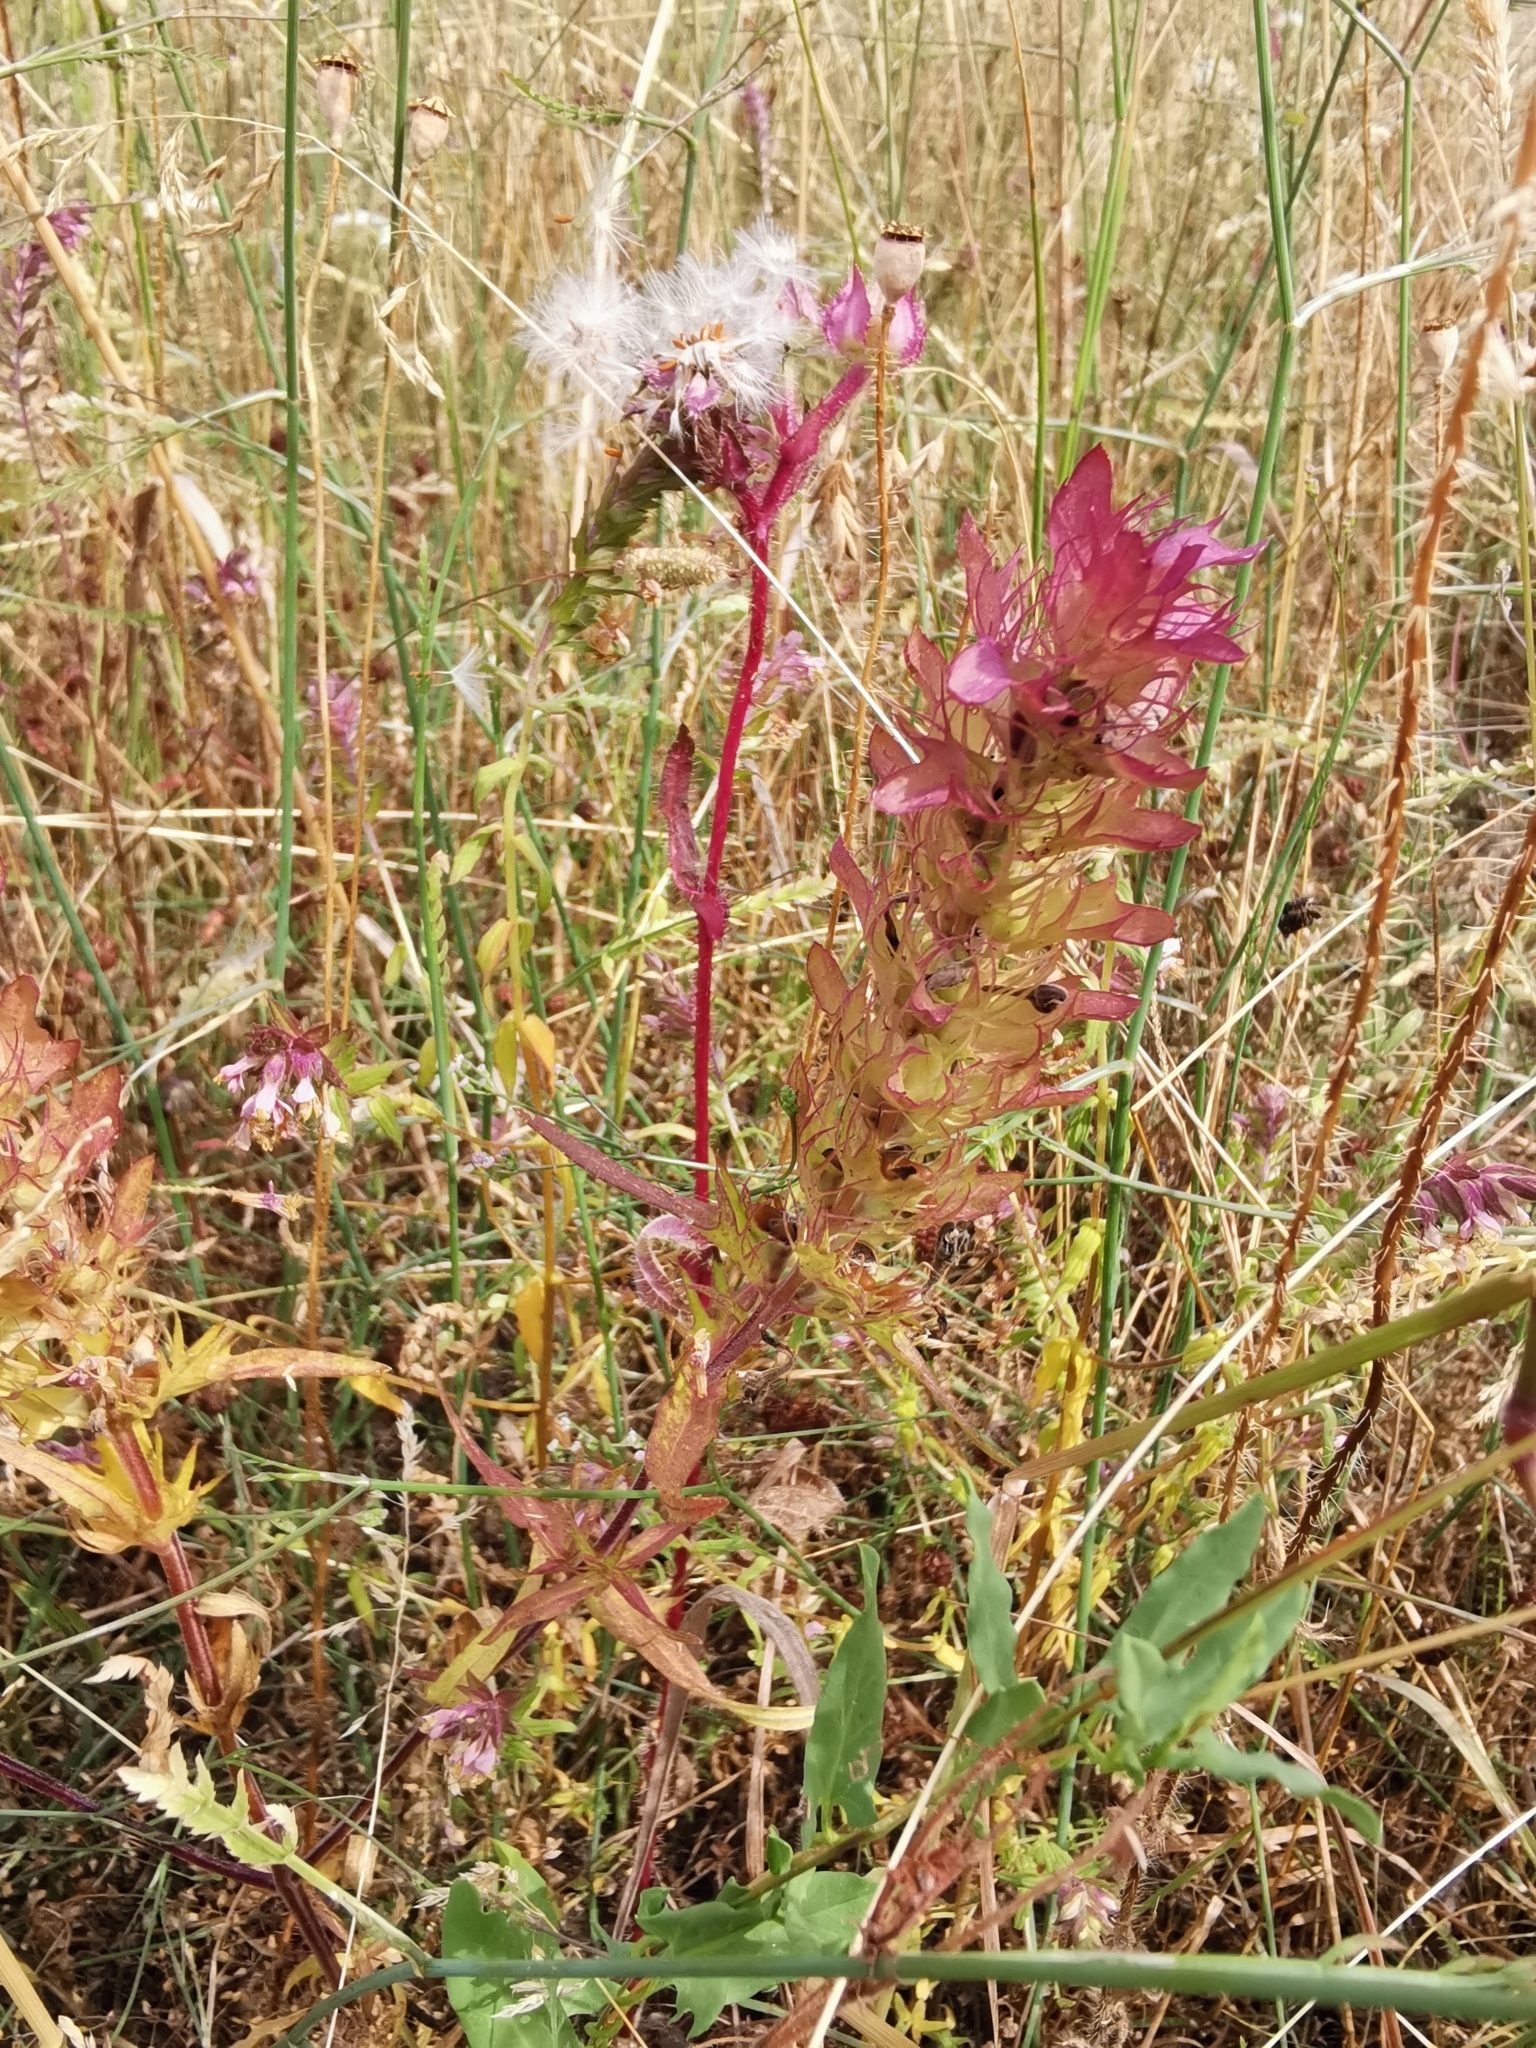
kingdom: Plantae
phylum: Tracheophyta
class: Magnoliopsida
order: Lamiales
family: Orobanchaceae
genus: Melampyrum
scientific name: Melampyrum arvense
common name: Field cow-wheat
